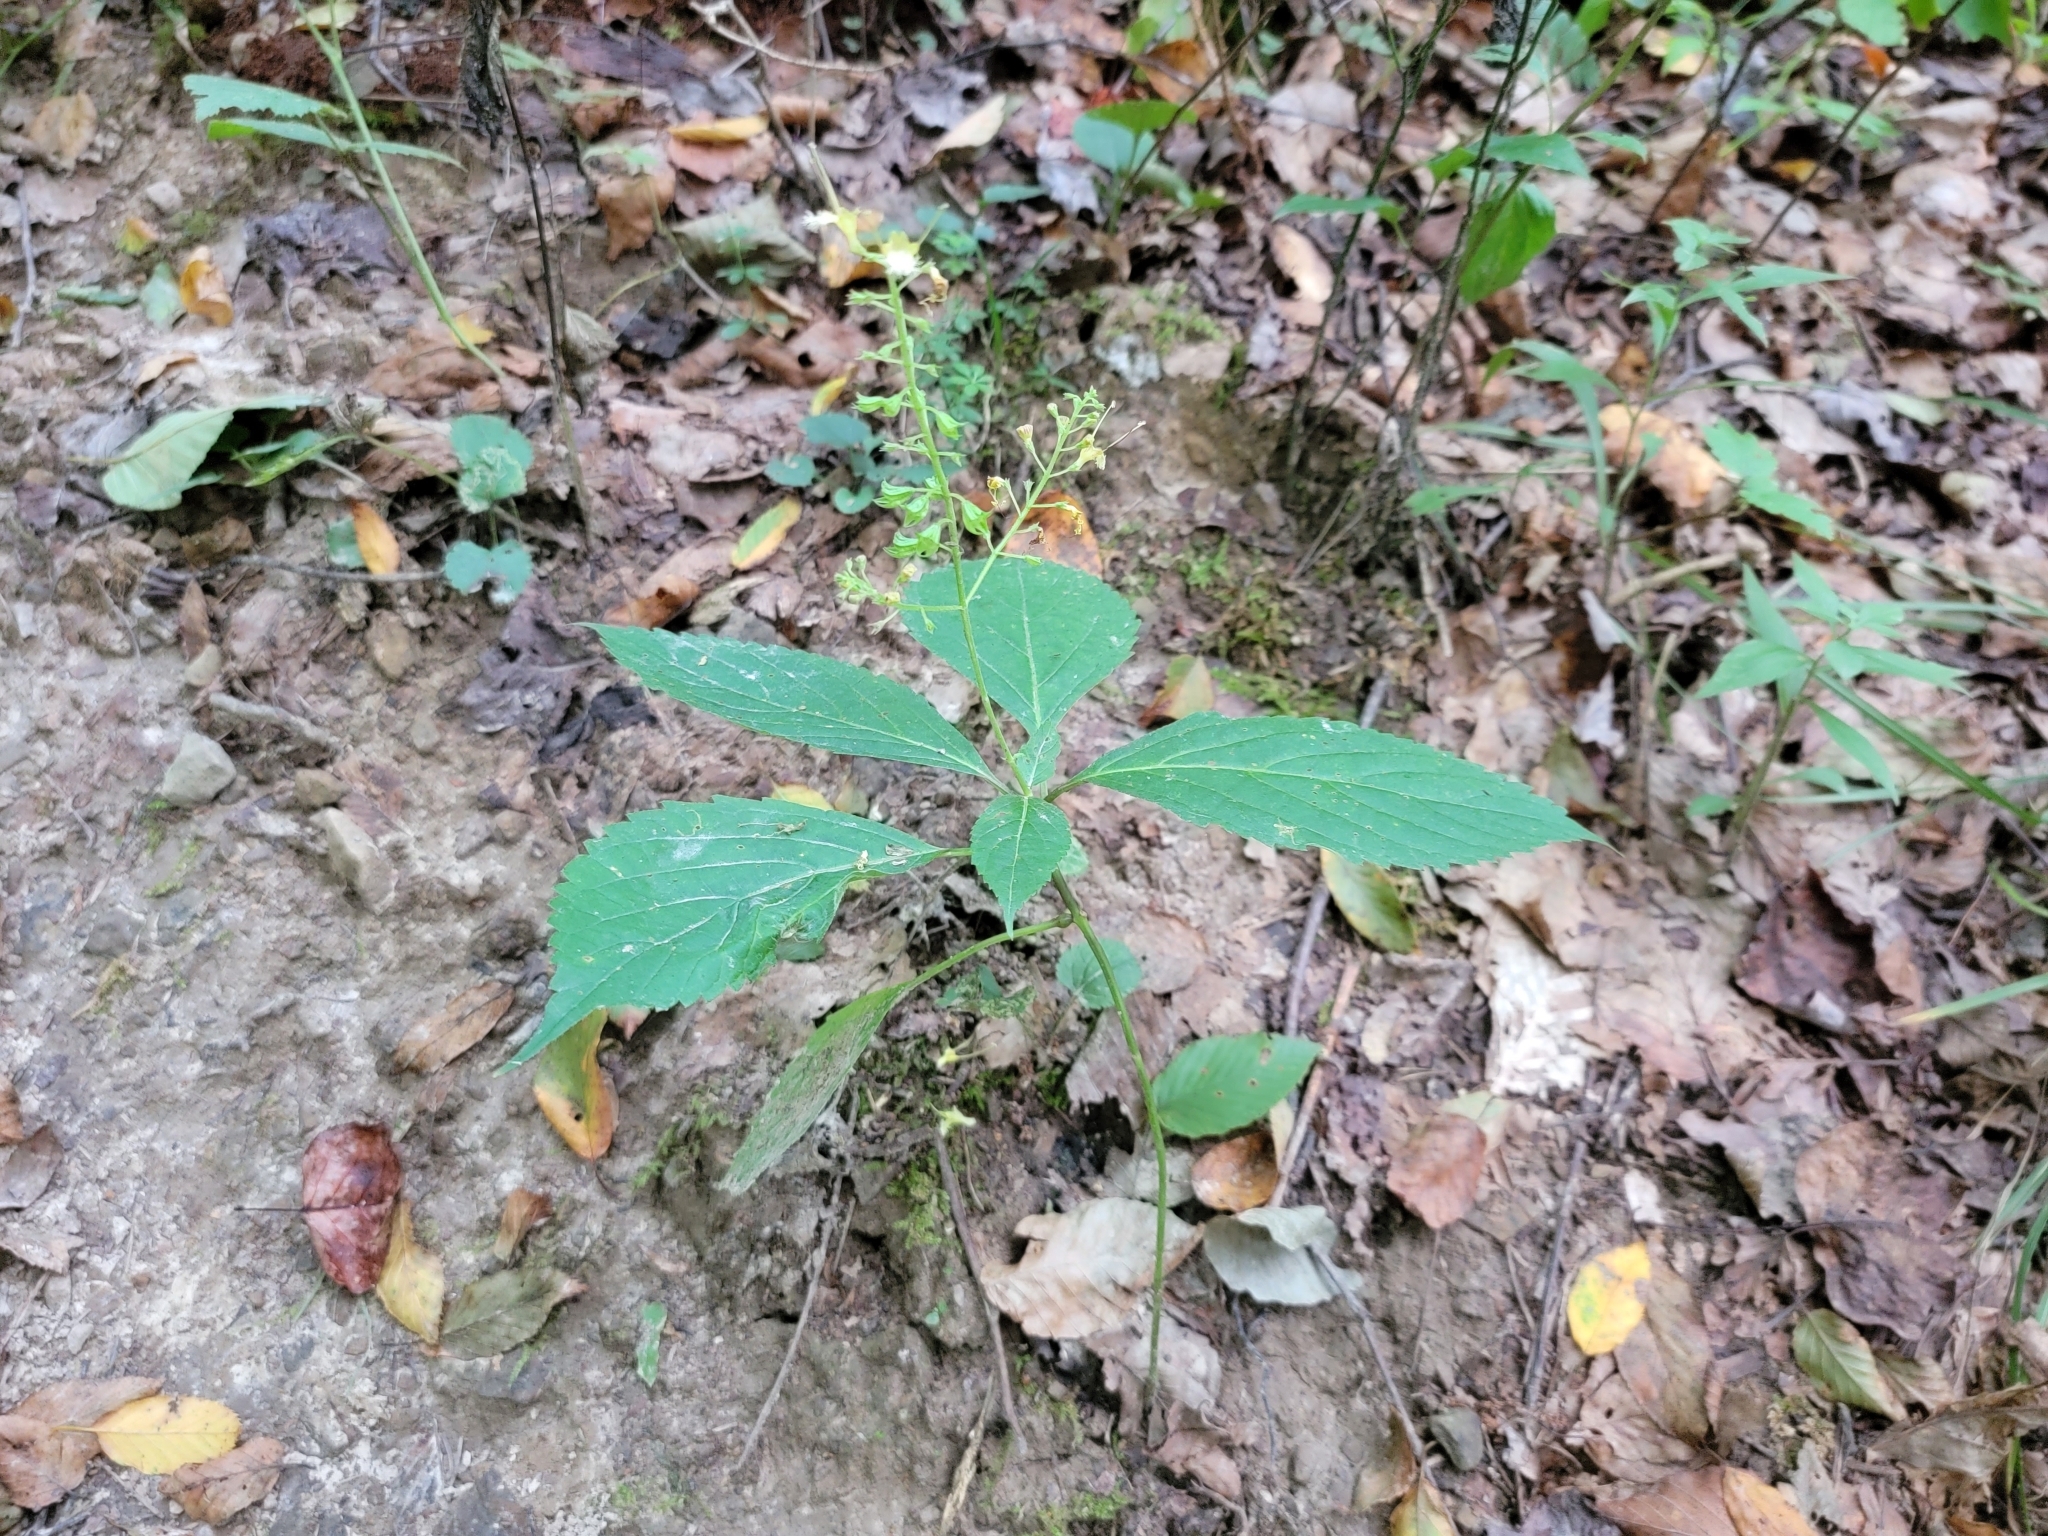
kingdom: Plantae
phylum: Tracheophyta
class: Magnoliopsida
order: Lamiales
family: Lamiaceae
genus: Collinsonia
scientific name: Collinsonia canadensis
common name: Northern horsebalm
